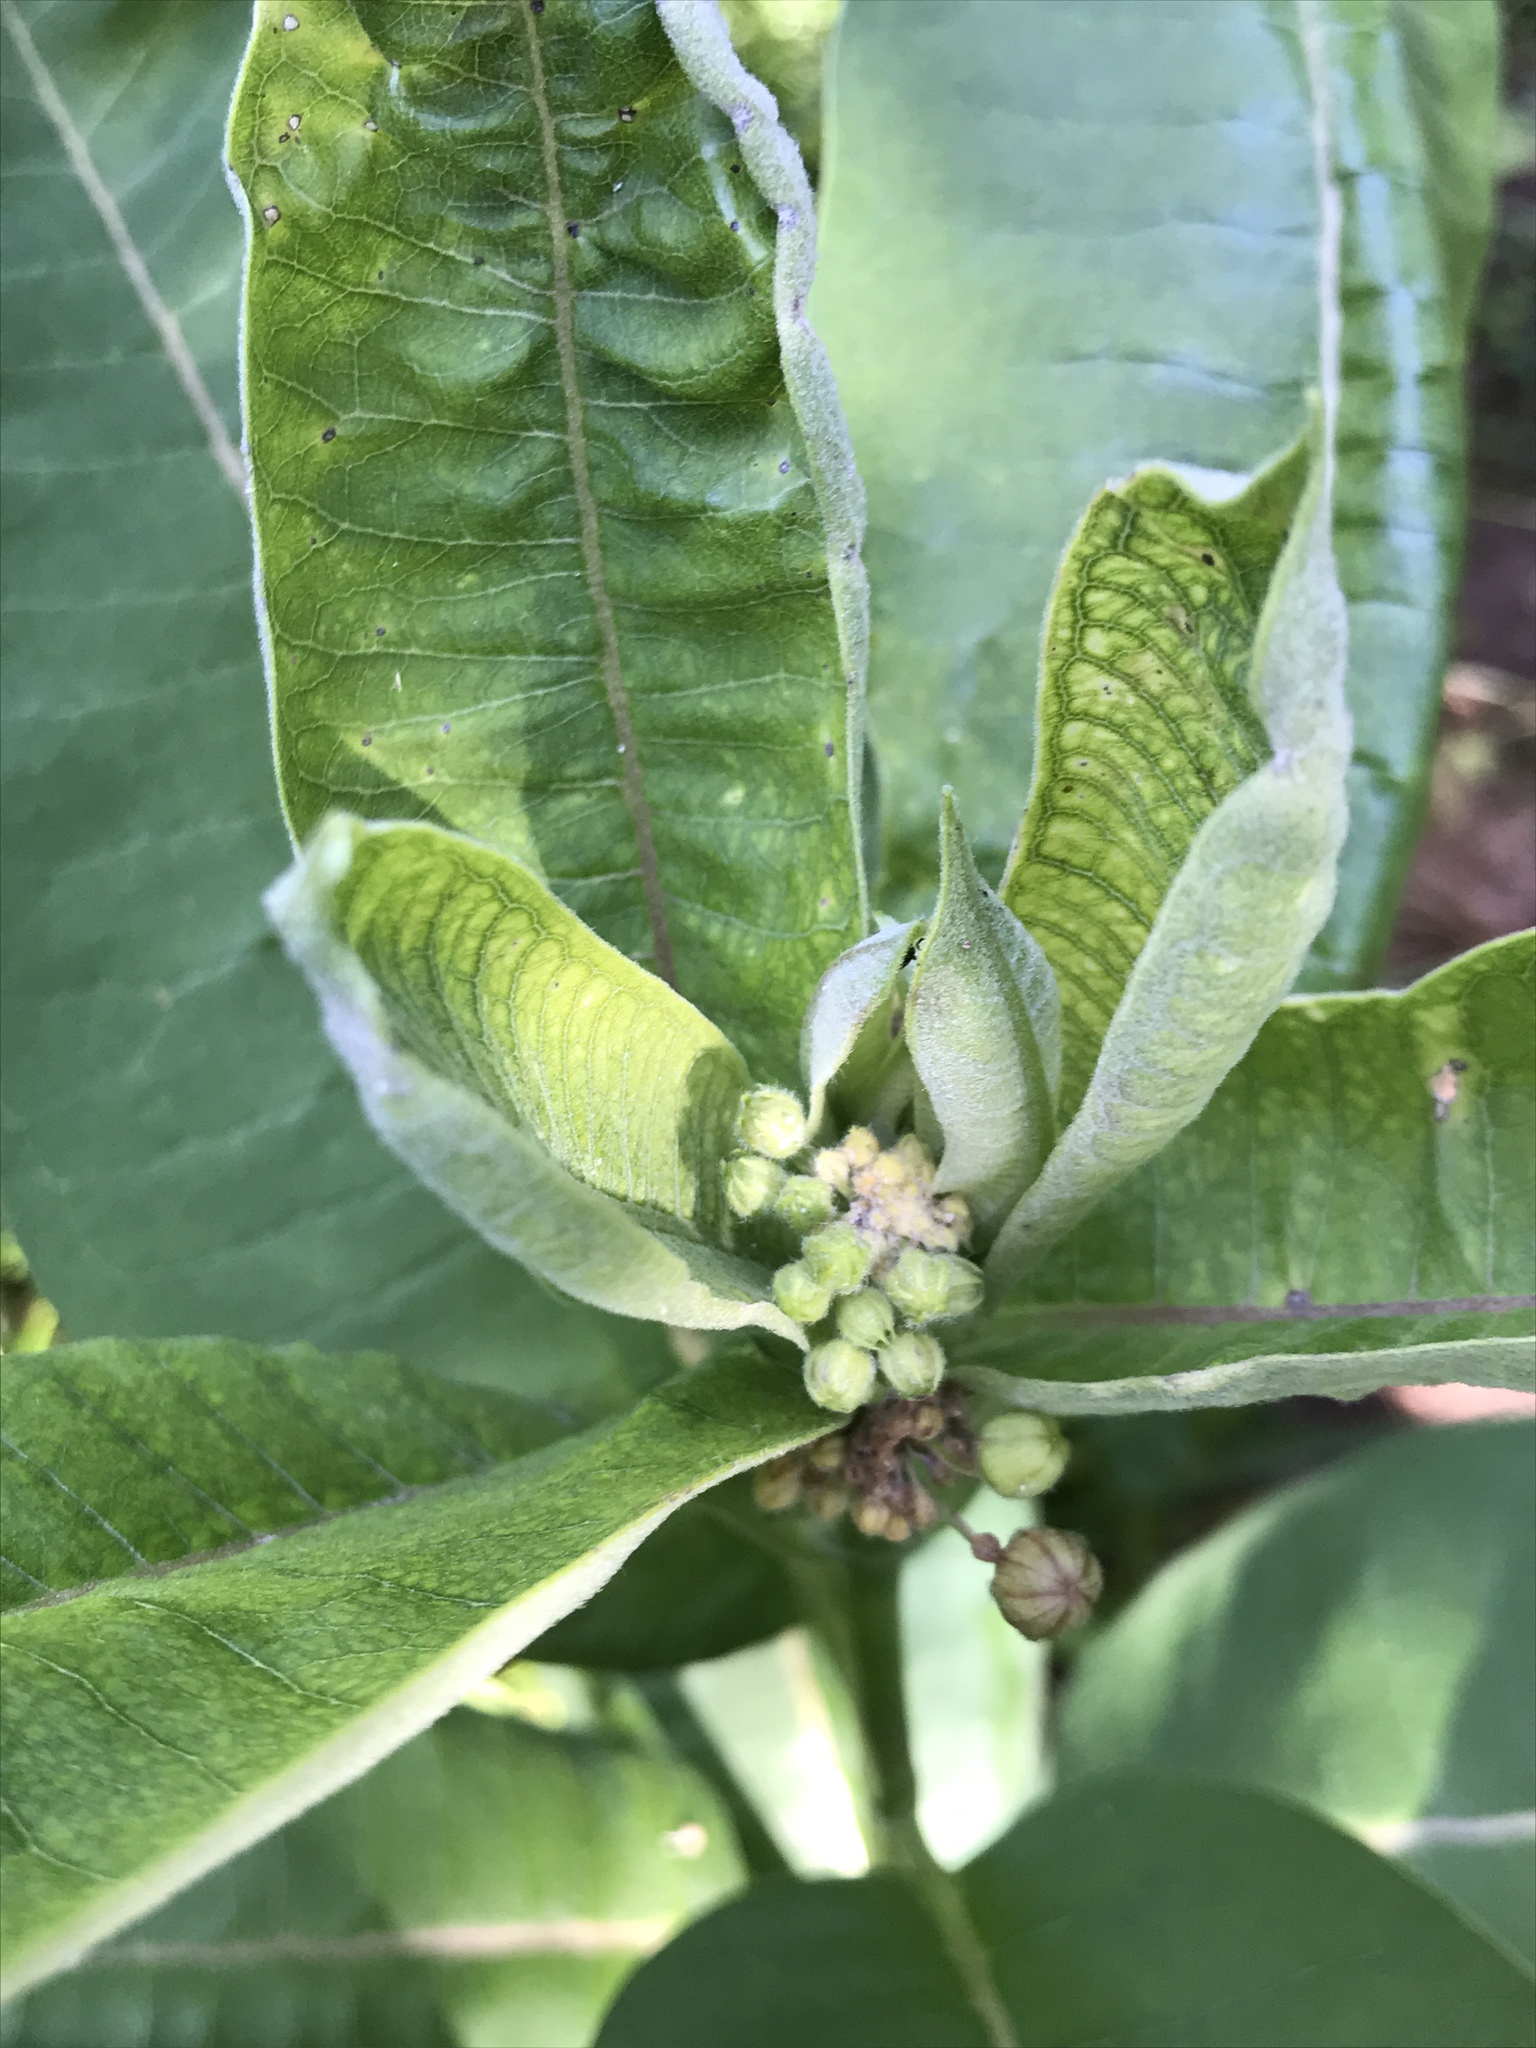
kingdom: Plantae
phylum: Tracheophyta
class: Magnoliopsida
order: Gentianales
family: Apocynaceae
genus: Asclepias
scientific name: Asclepias syriaca
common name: Common milkweed
